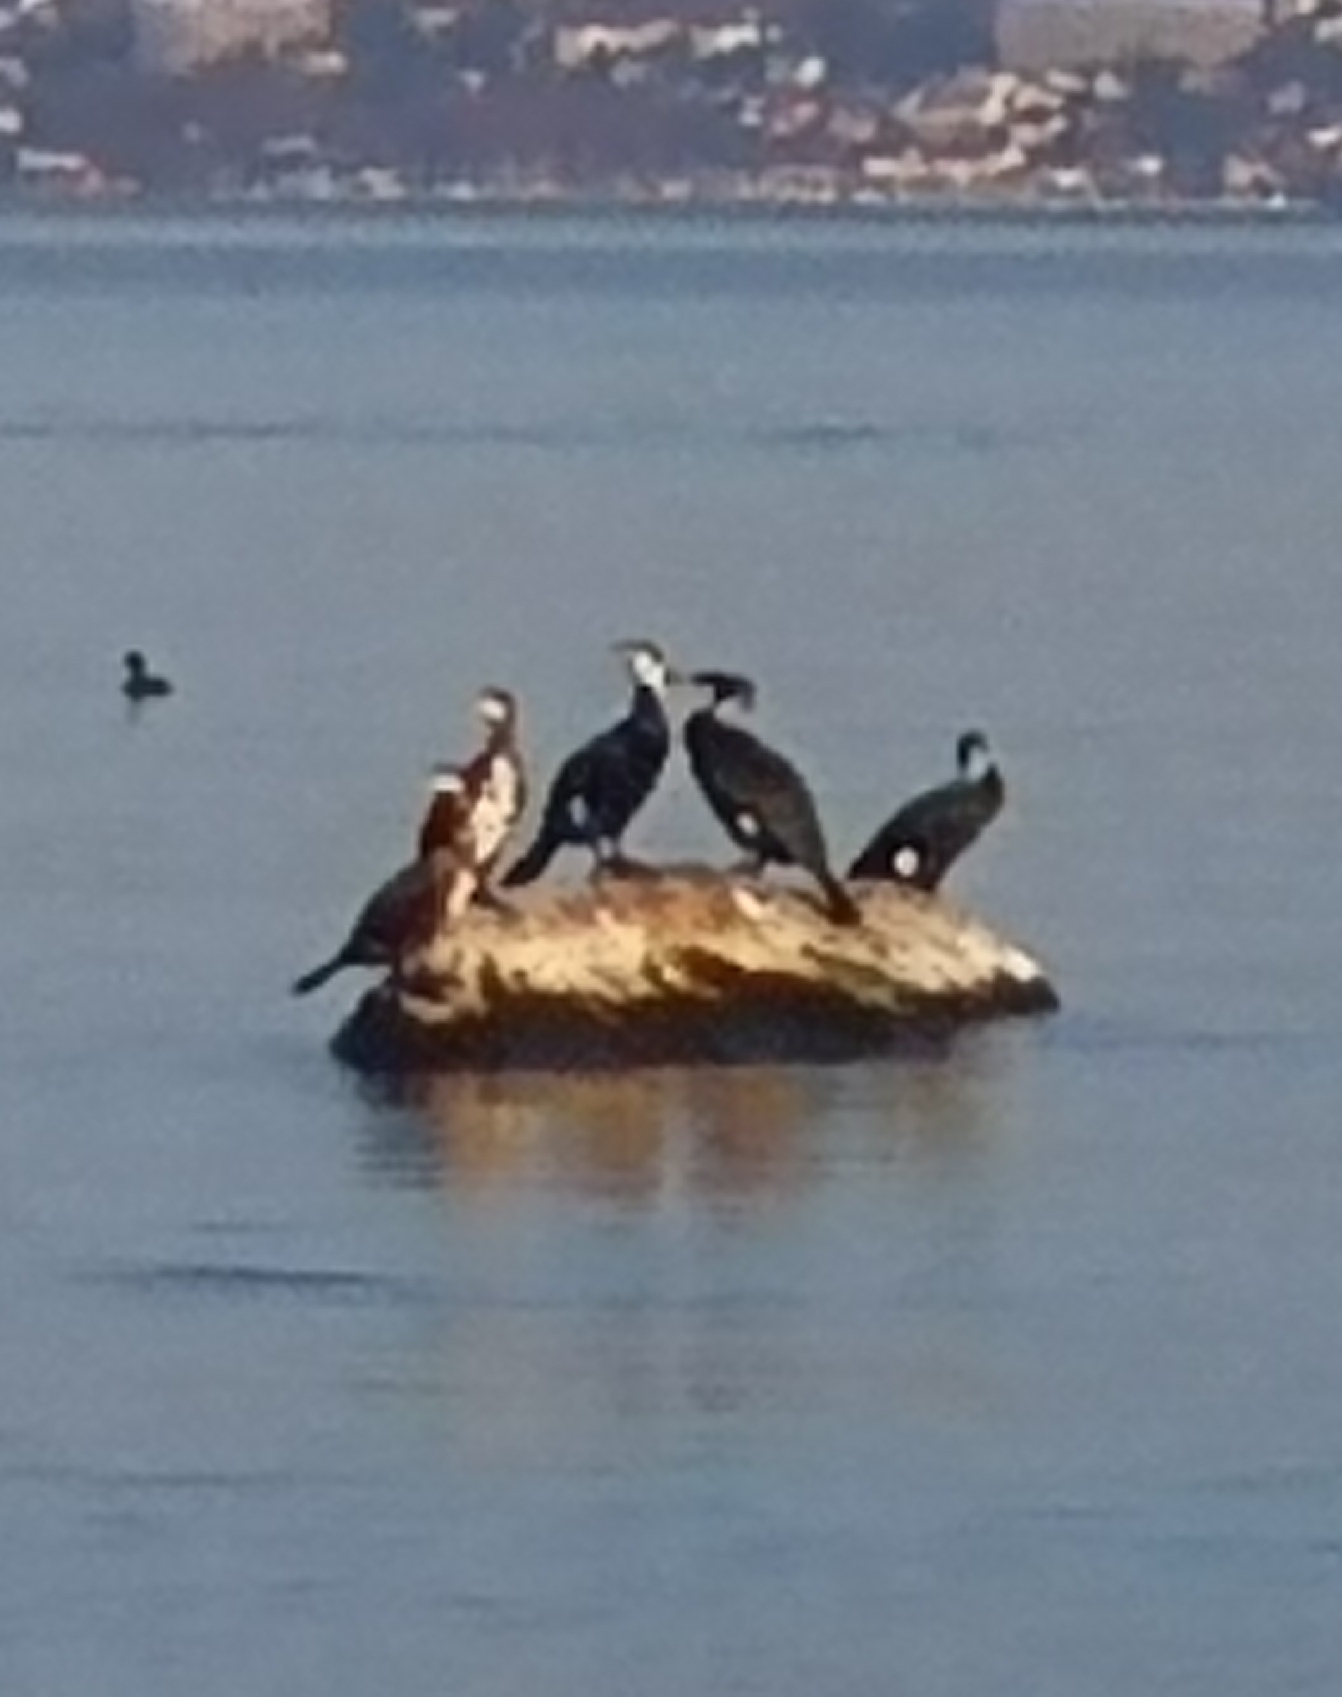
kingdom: Animalia
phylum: Chordata
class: Aves
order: Suliformes
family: Phalacrocoracidae
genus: Phalacrocorax
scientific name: Phalacrocorax carbo
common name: Great cormorant
